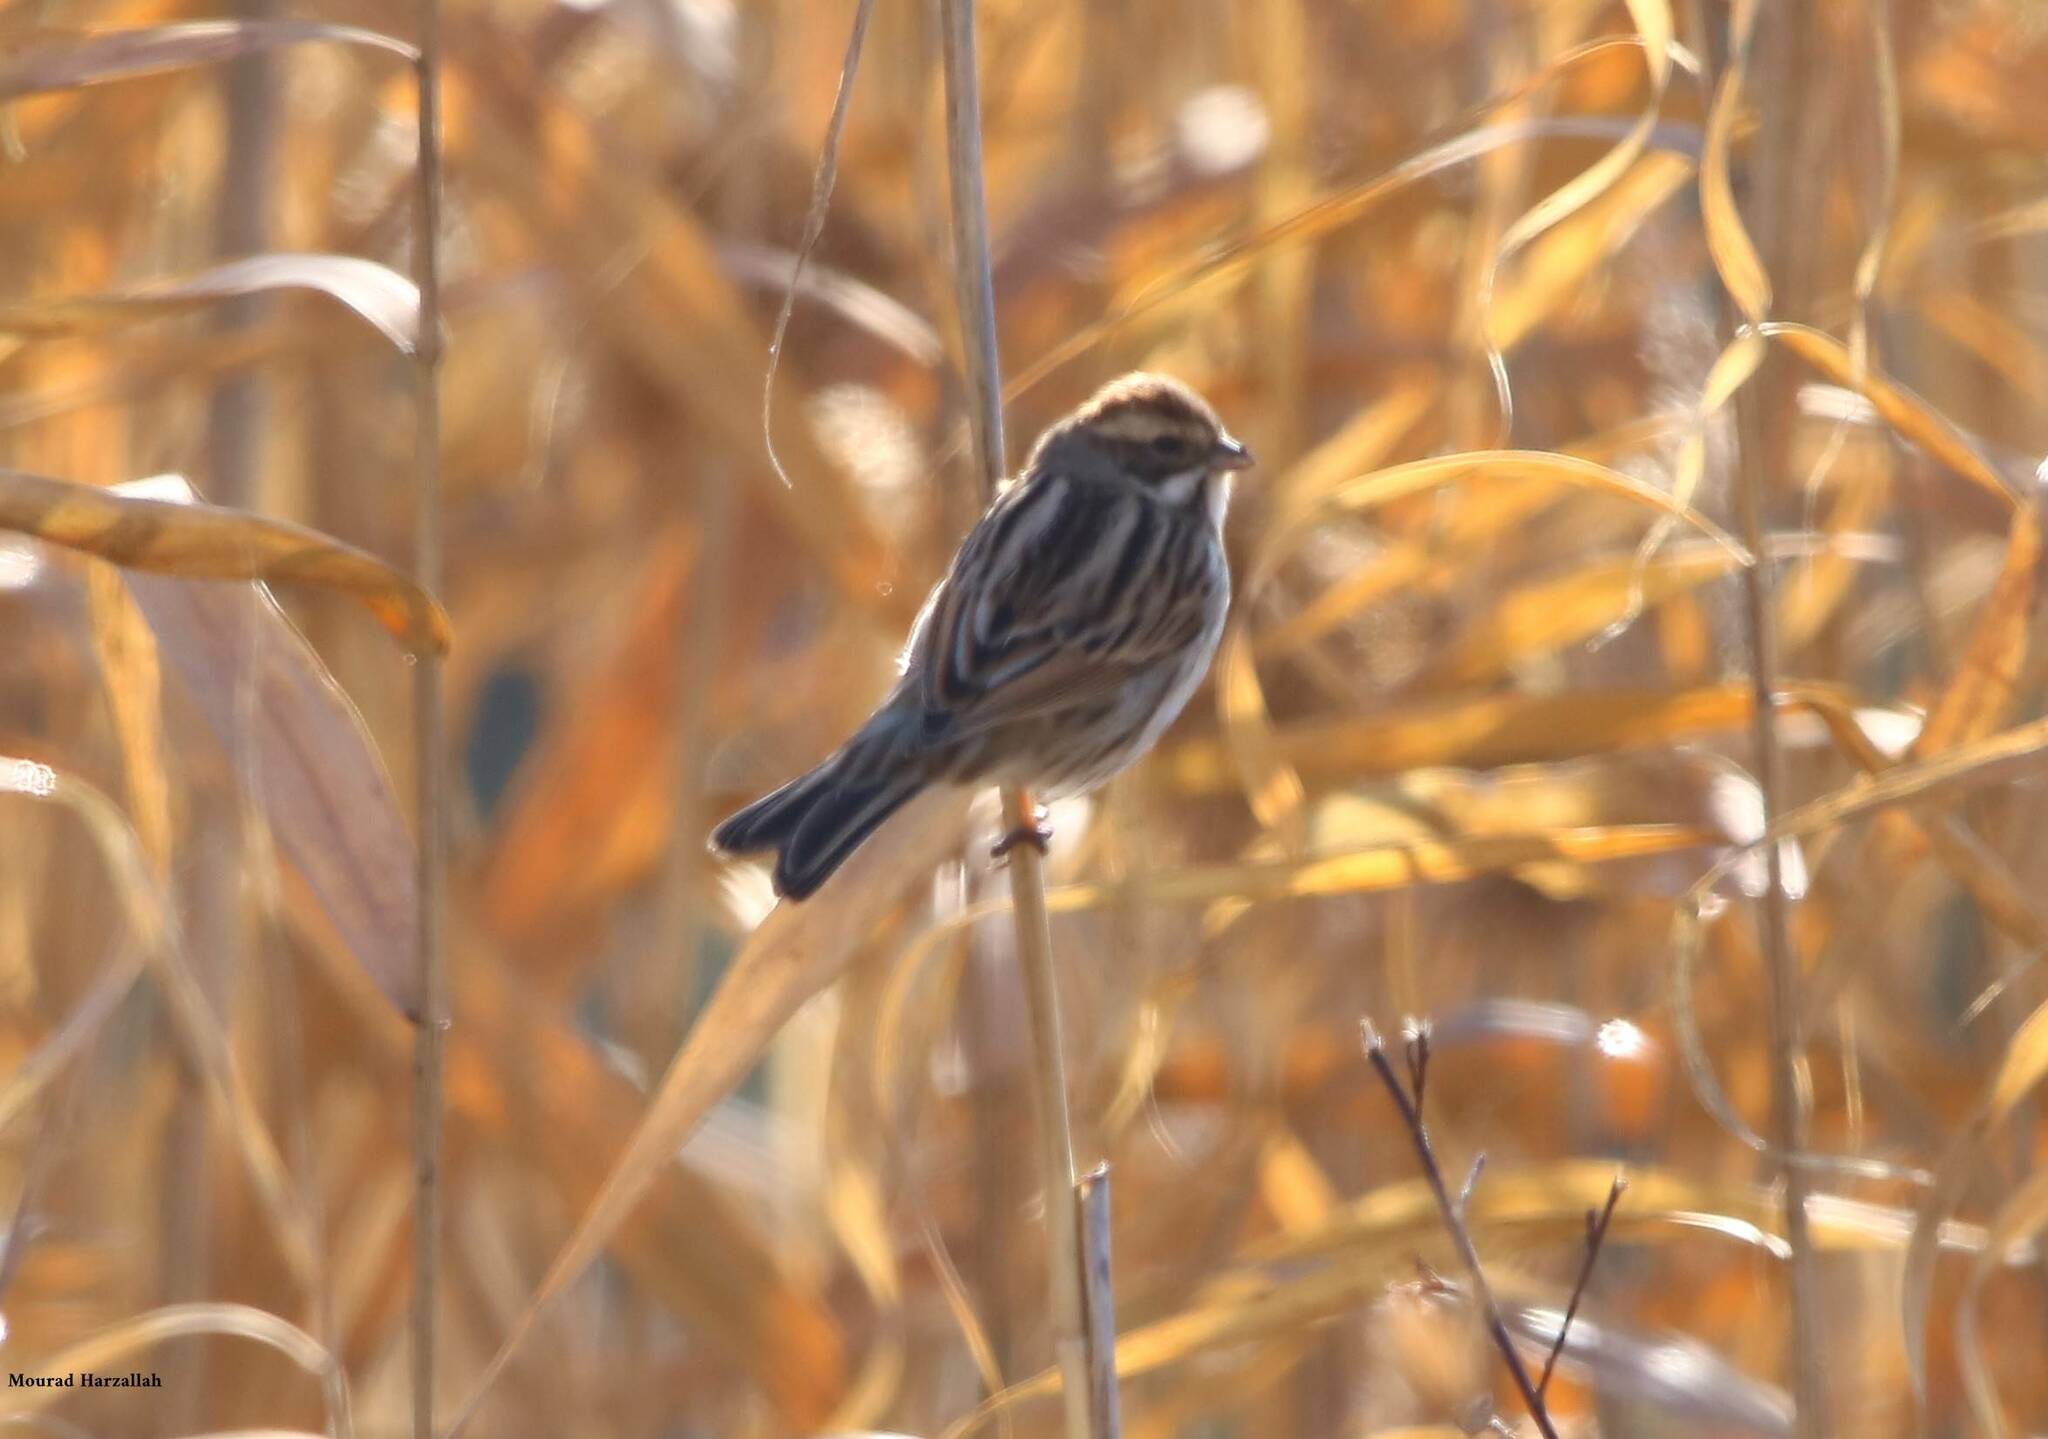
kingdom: Animalia
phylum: Chordata
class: Aves
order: Passeriformes
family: Emberizidae
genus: Emberiza
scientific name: Emberiza schoeniclus
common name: Reed bunting
